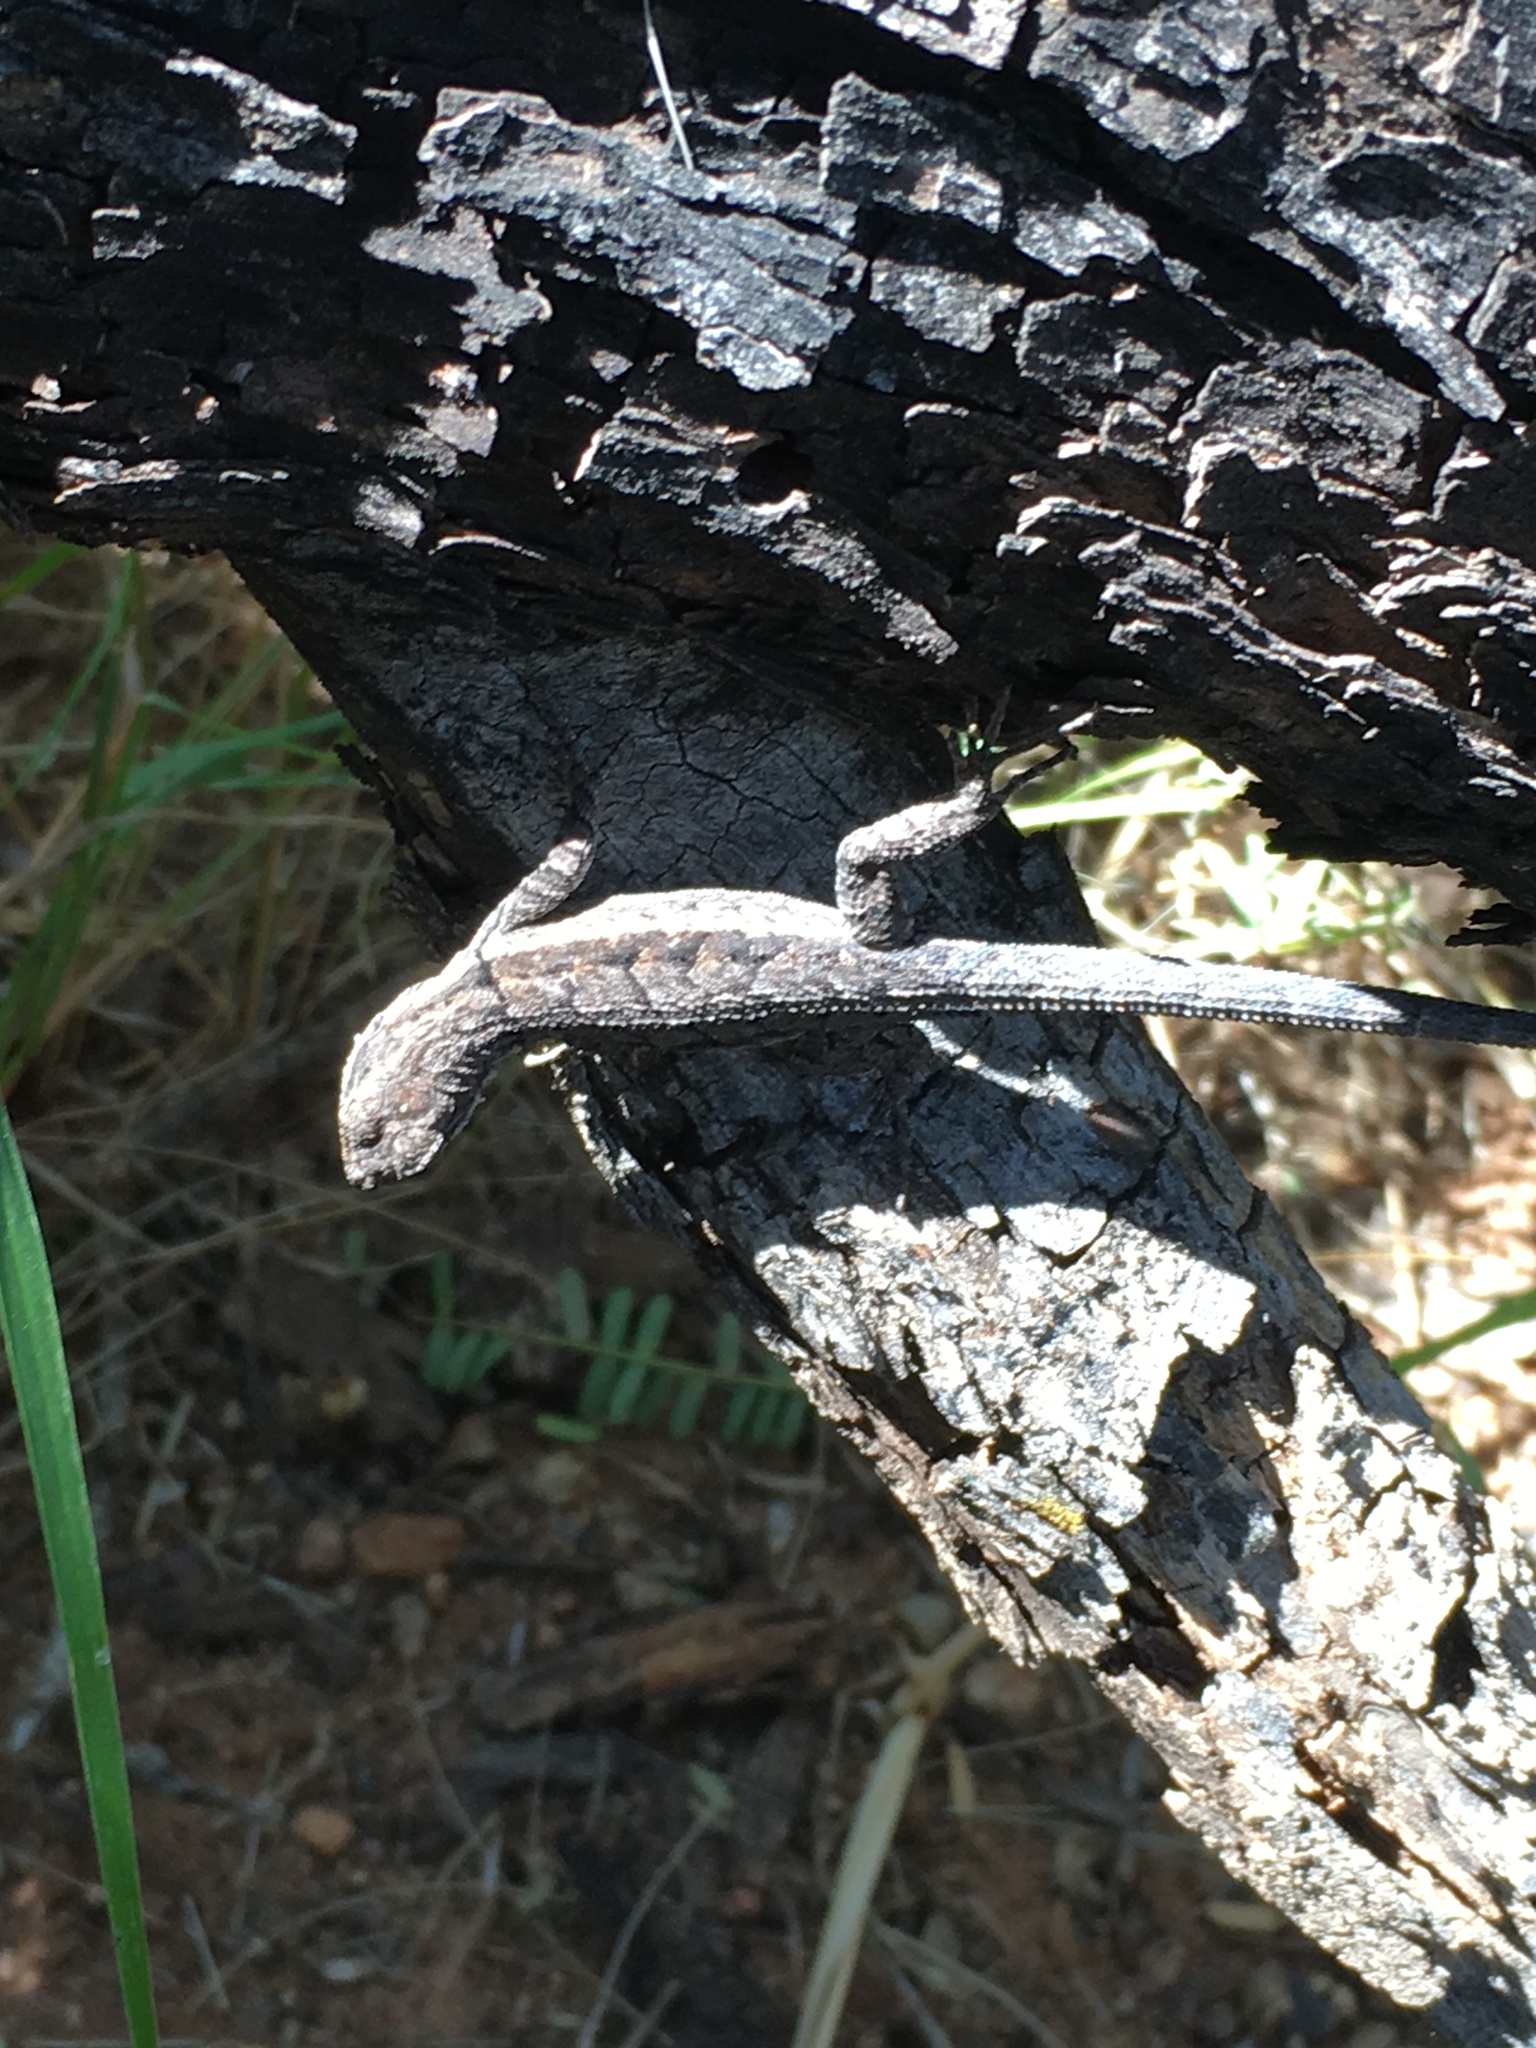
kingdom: Animalia
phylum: Chordata
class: Squamata
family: Phrynosomatidae
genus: Urosaurus
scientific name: Urosaurus ornatus
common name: Ornate tree lizard
